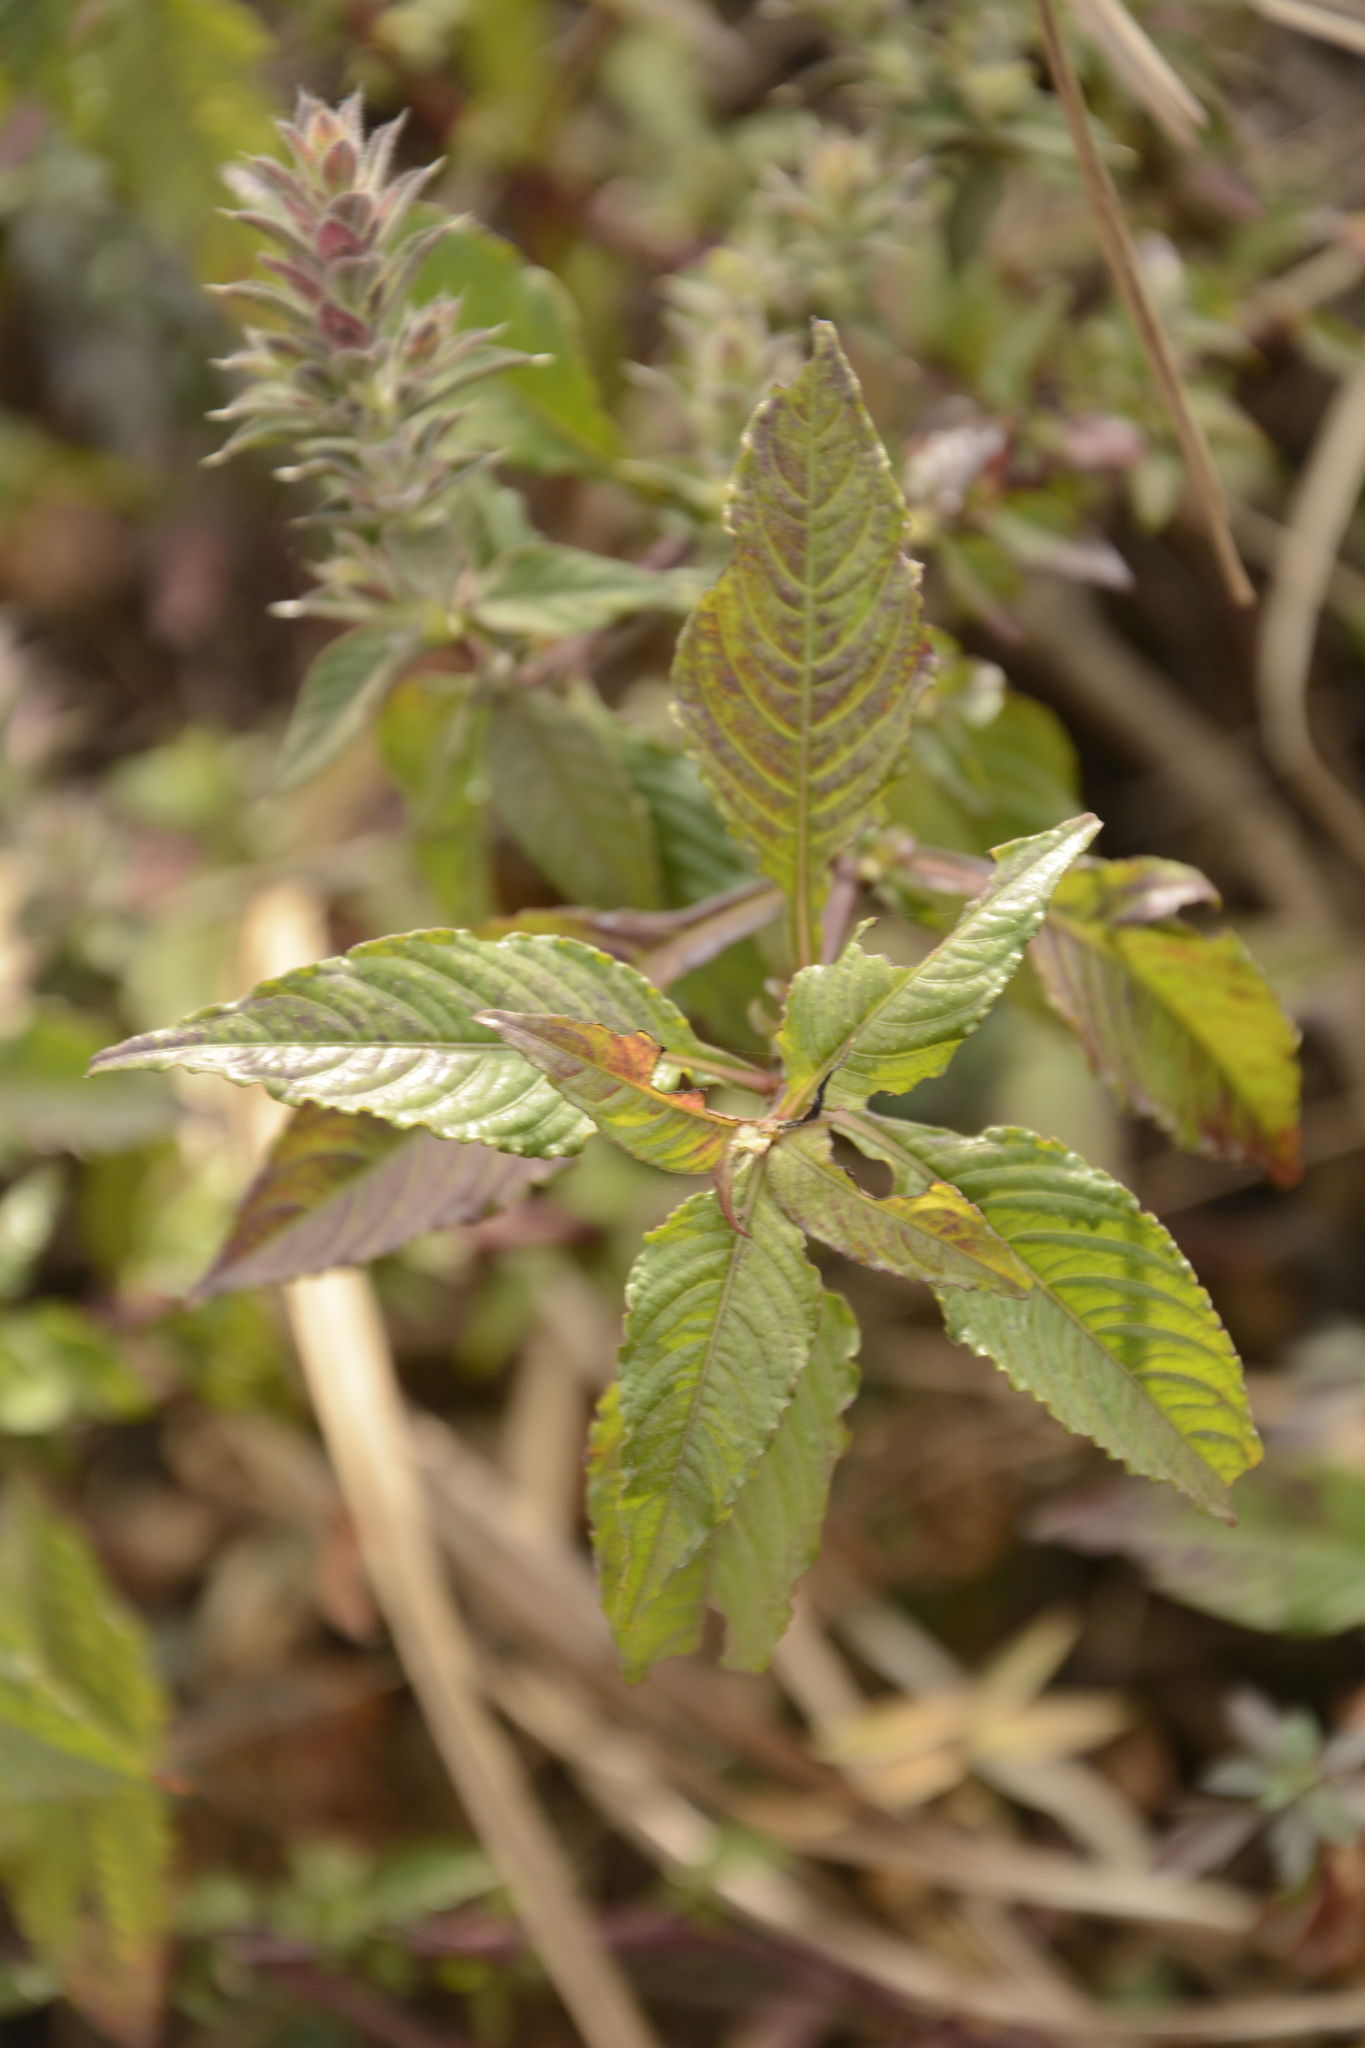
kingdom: Plantae
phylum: Tracheophyta
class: Magnoliopsida
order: Lamiales
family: Acanthaceae
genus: Lepidagathis
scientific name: Lepidagathis cuspidata
